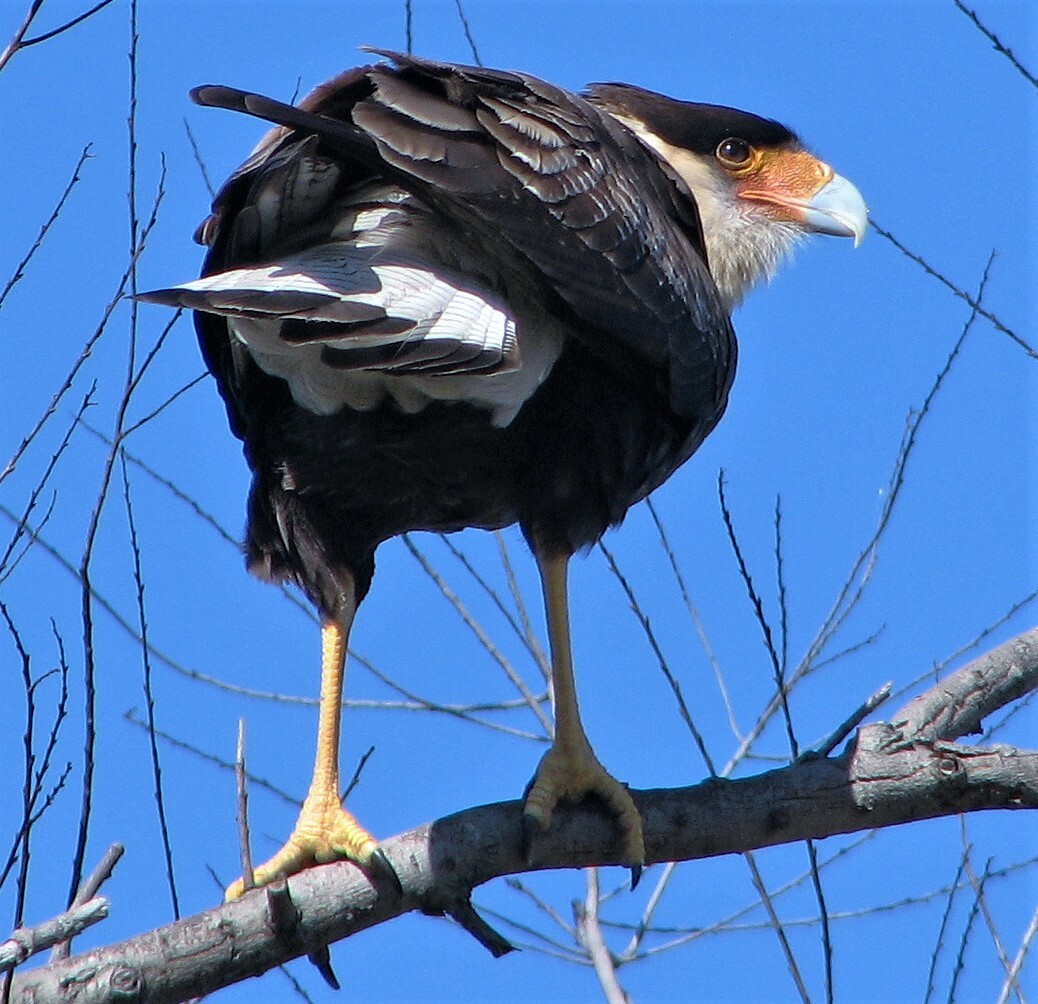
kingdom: Animalia
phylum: Chordata
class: Aves
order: Falconiformes
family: Falconidae
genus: Caracara
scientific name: Caracara plancus
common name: Southern caracara
